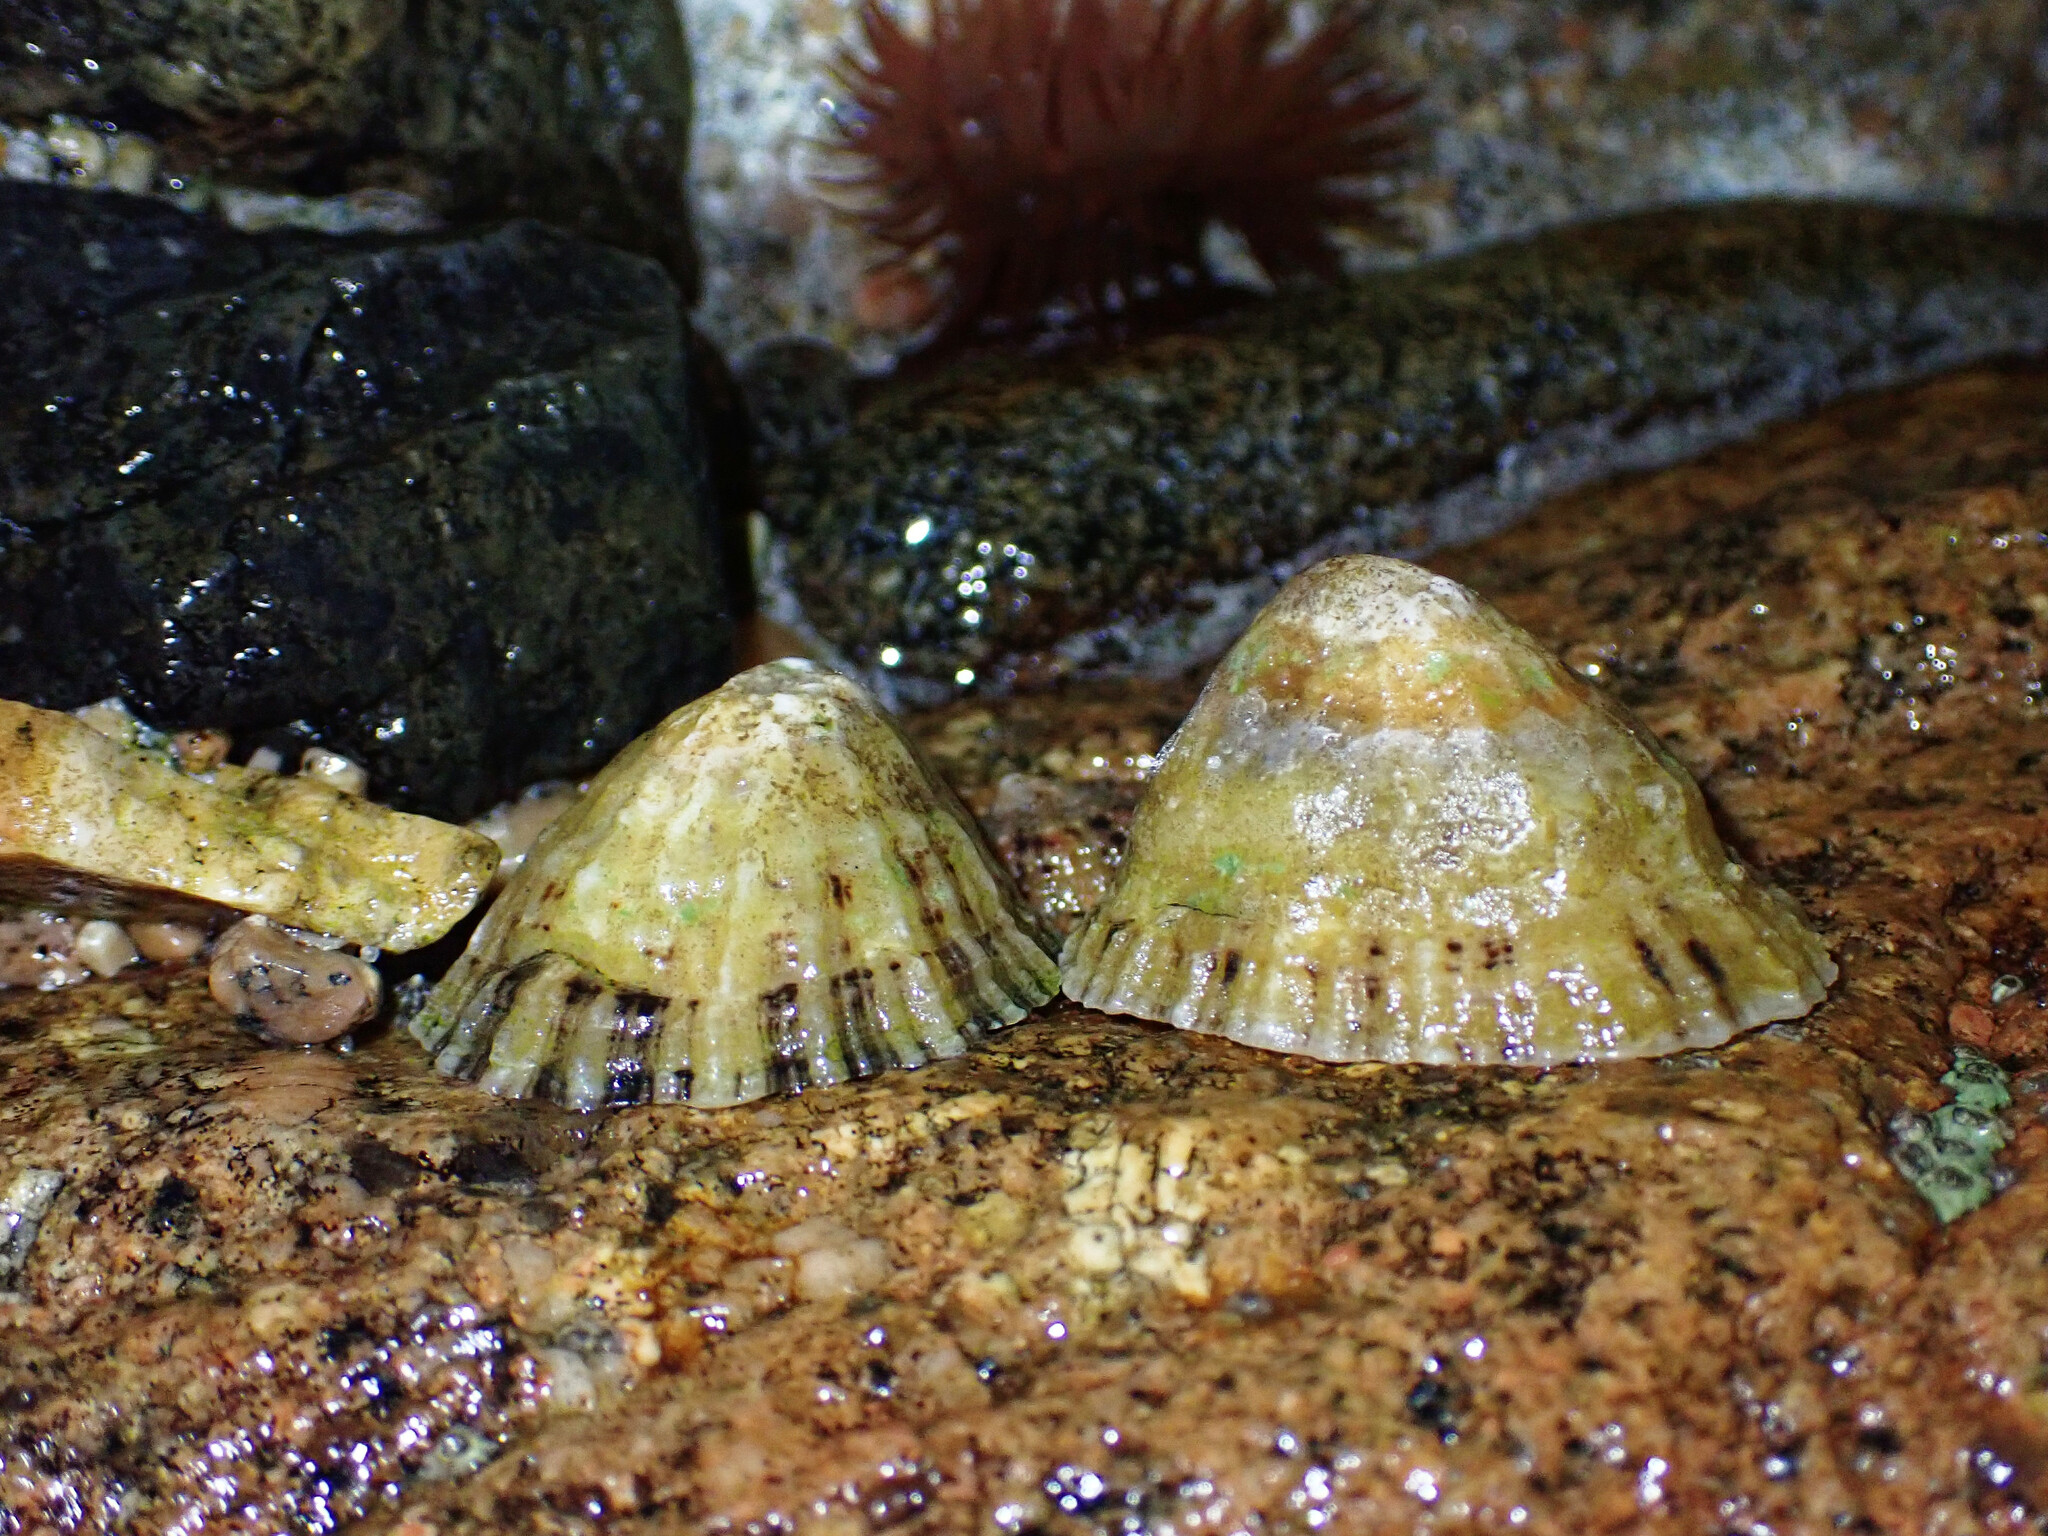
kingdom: Animalia
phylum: Mollusca
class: Gastropoda
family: Patellidae
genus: Patella
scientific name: Patella vulgata
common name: Common limpet
